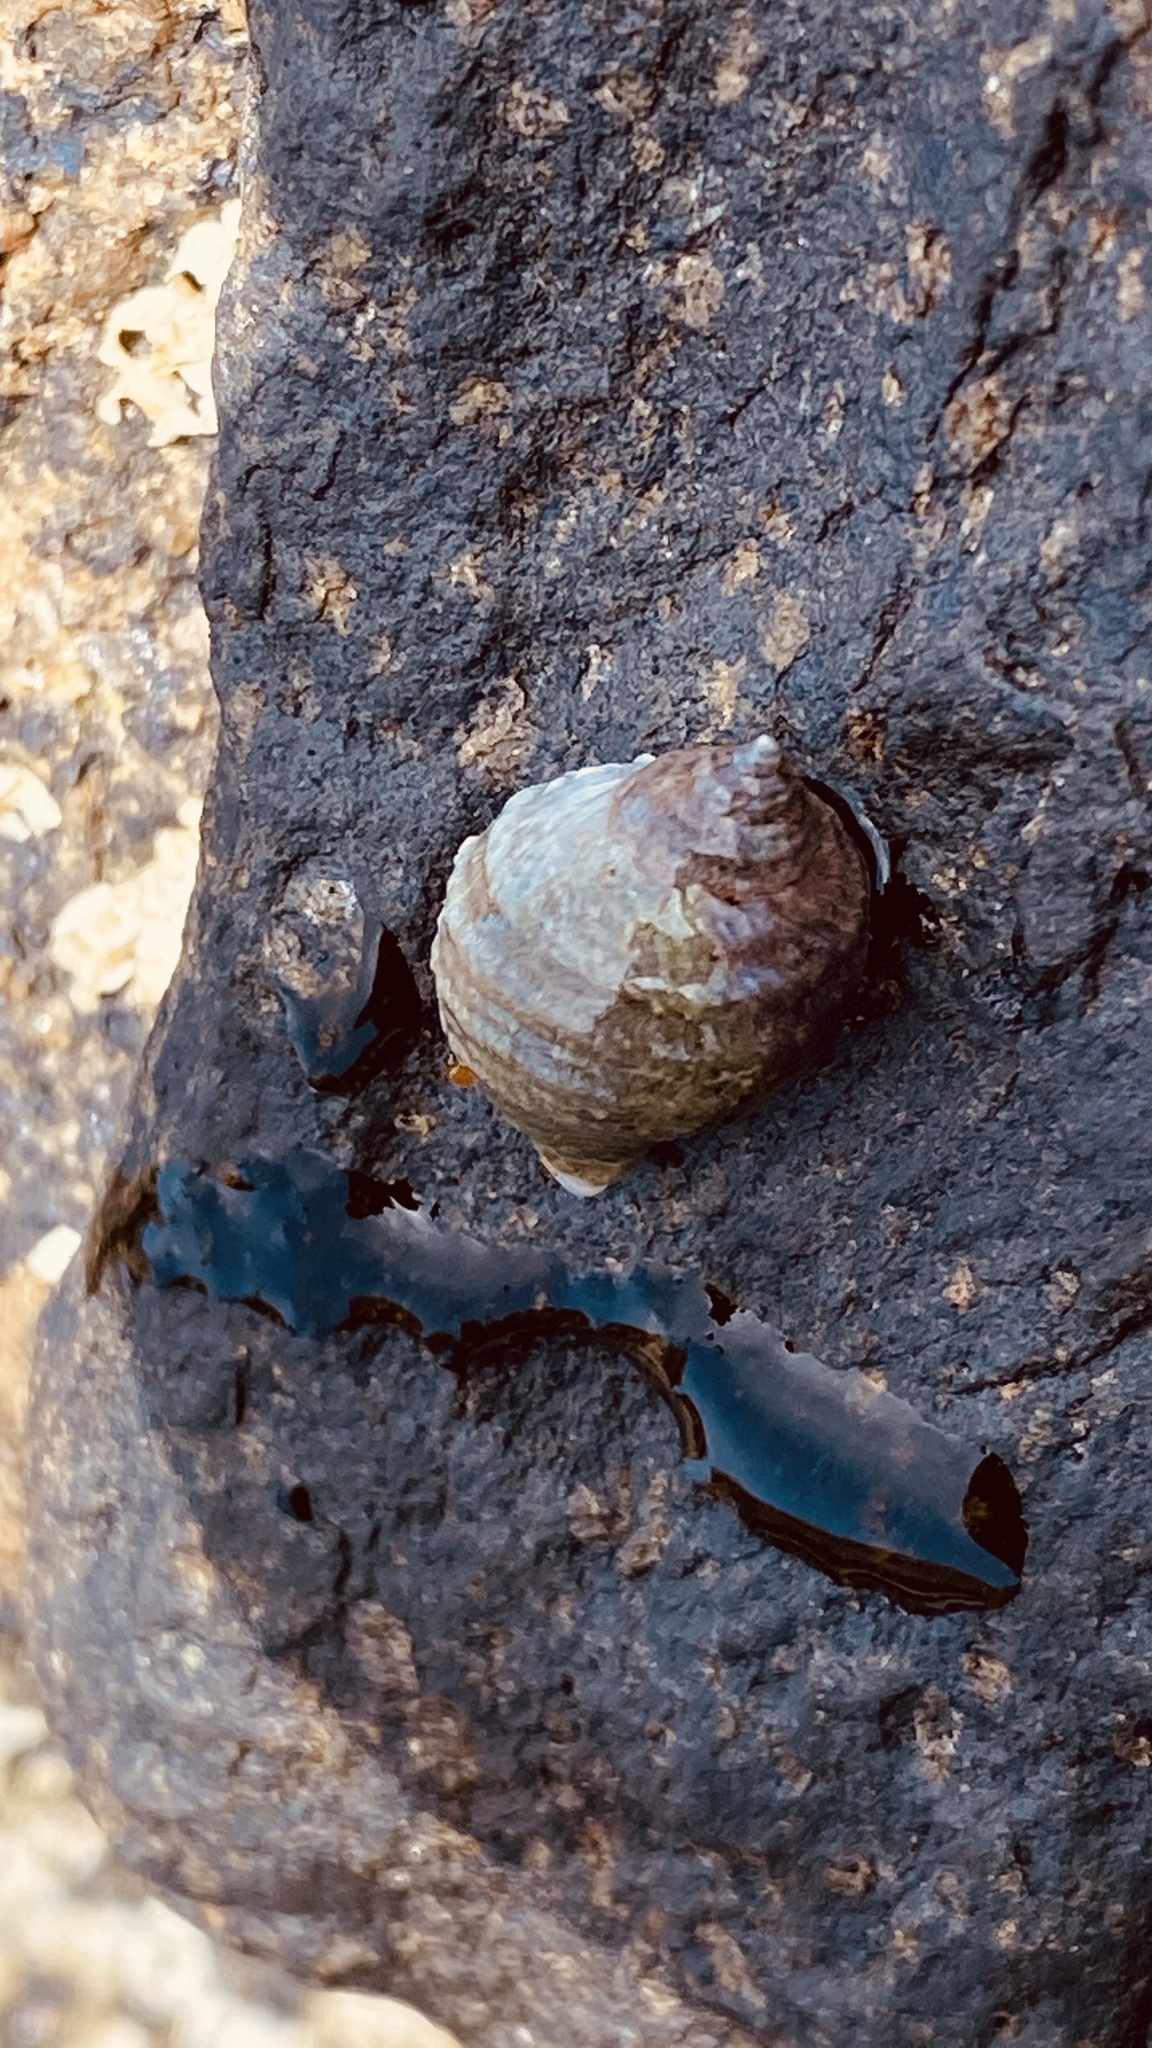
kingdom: Animalia
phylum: Mollusca
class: Gastropoda
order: Neogastropoda
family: Muricidae
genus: Nucella
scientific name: Nucella lapillus
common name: Dog whelk
